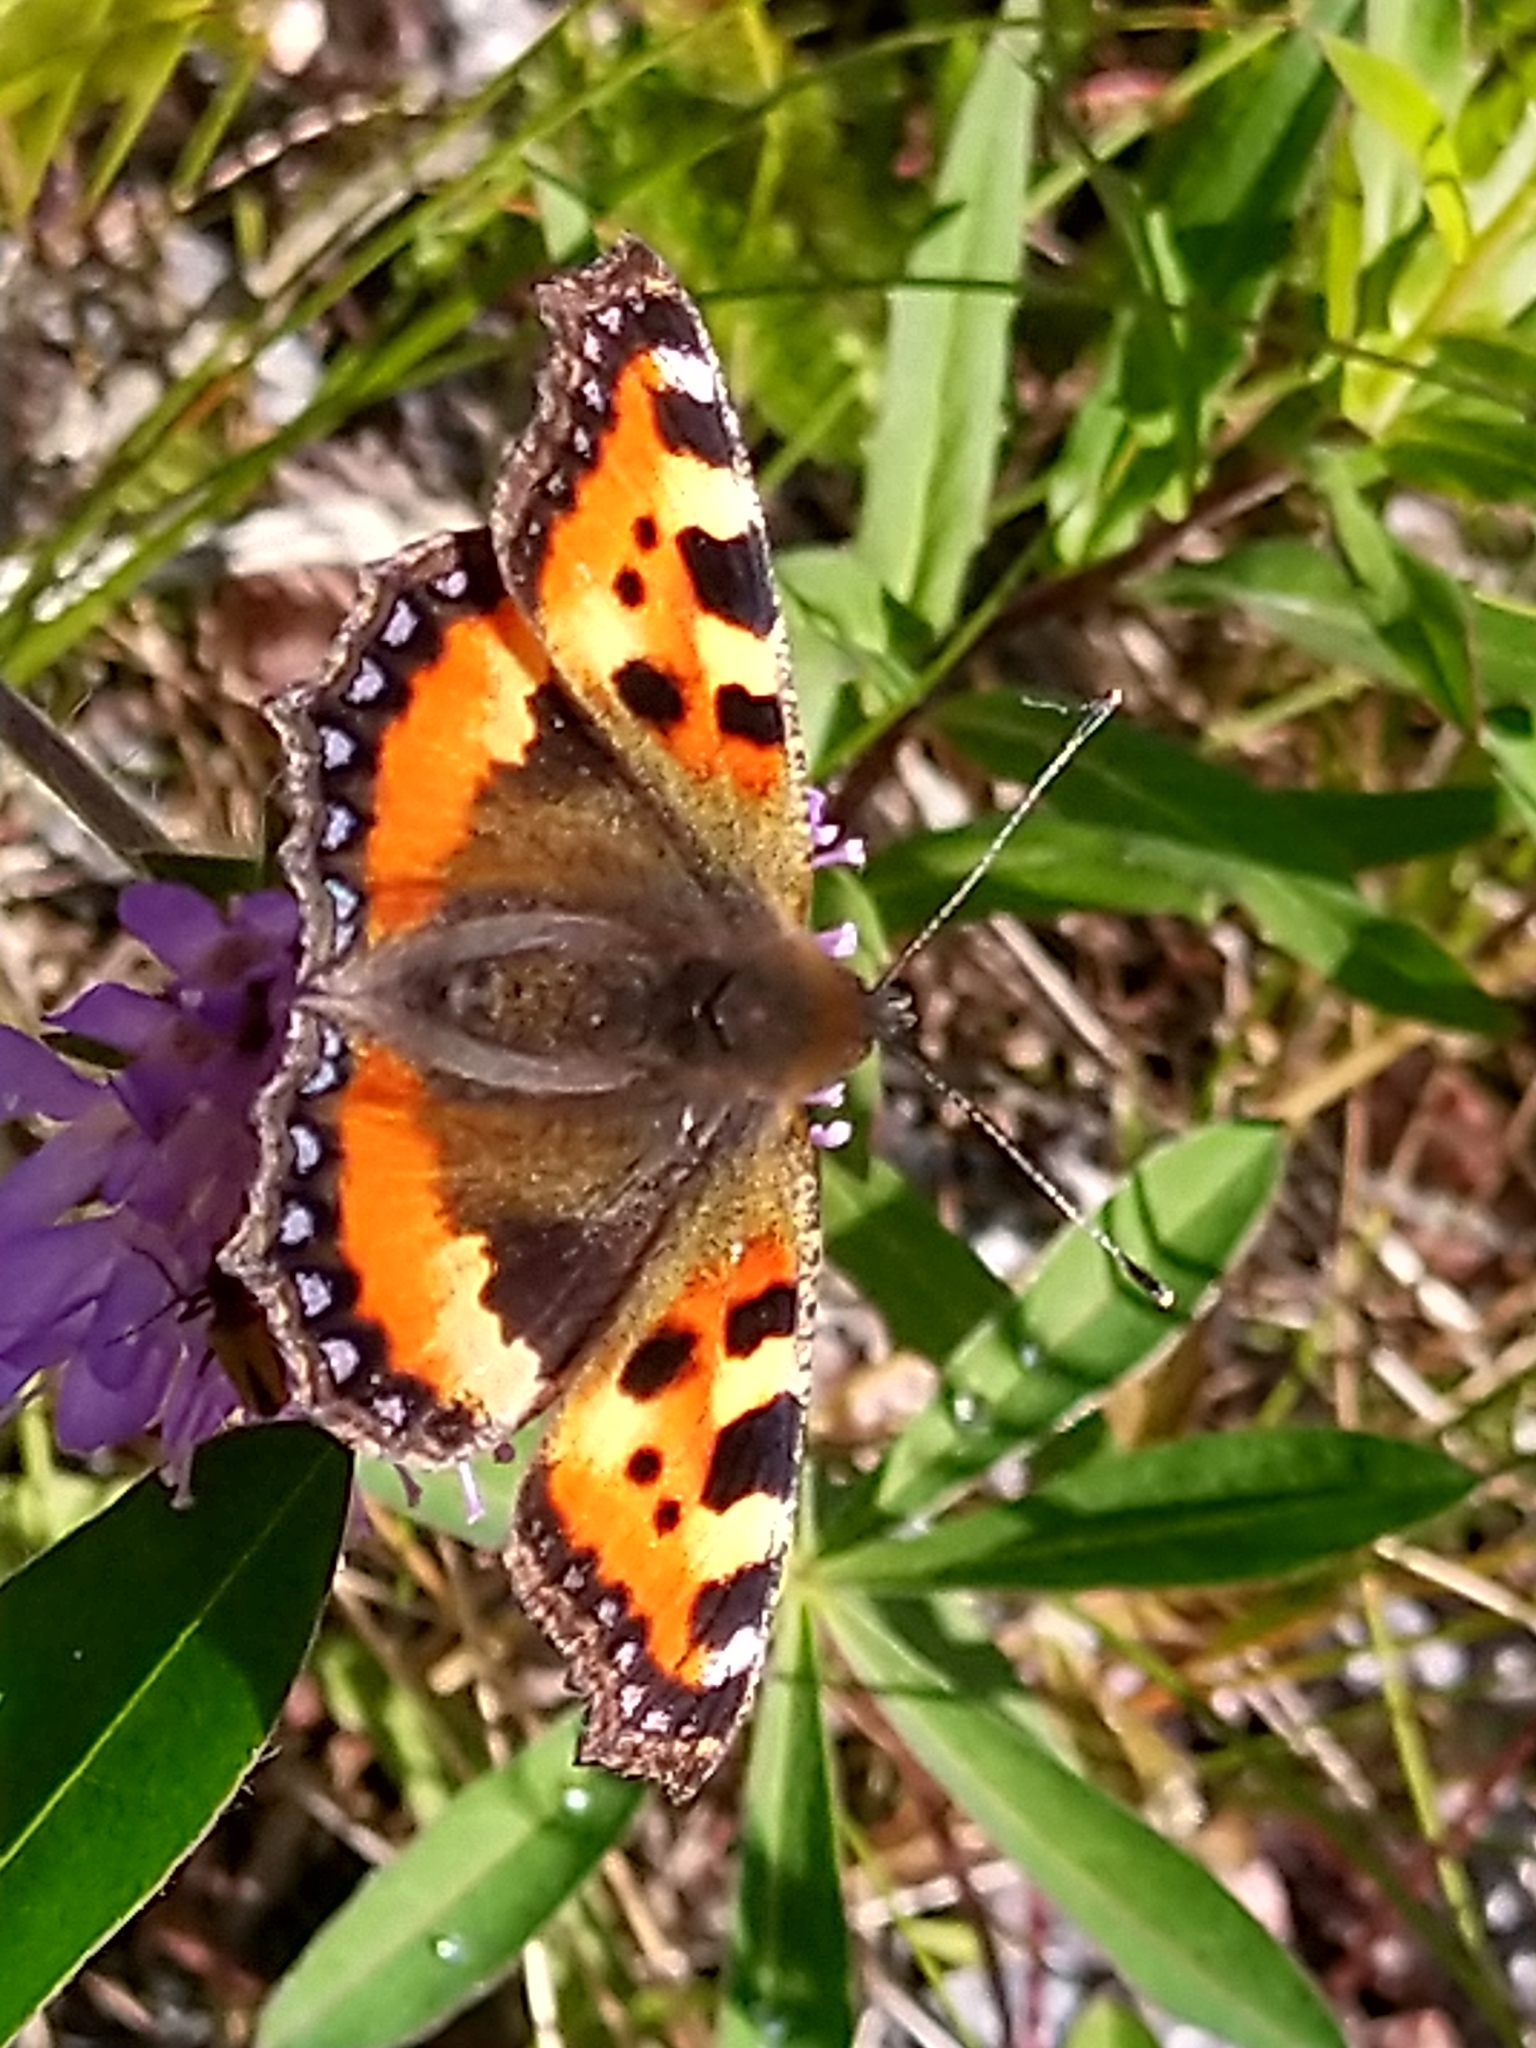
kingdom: Animalia
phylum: Arthropoda
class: Insecta
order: Lepidoptera
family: Nymphalidae
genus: Aglais
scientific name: Aglais urticae
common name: Small tortoiseshell
